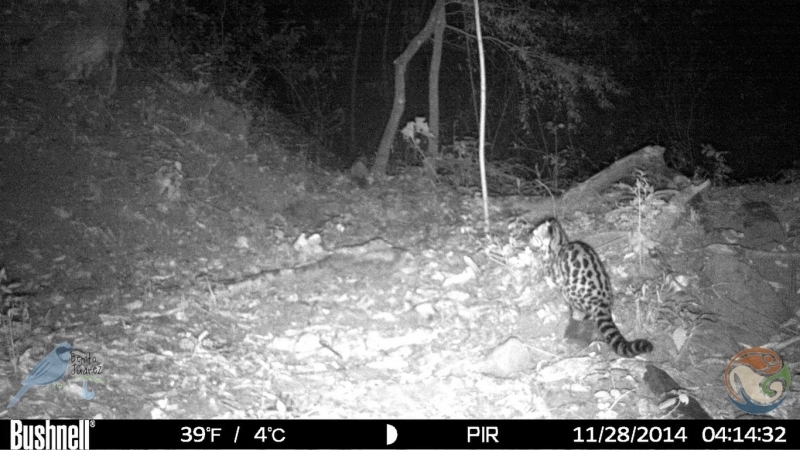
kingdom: Animalia
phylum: Chordata
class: Mammalia
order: Carnivora
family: Felidae
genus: Leopardus
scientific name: Leopardus wiedii
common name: Margay
